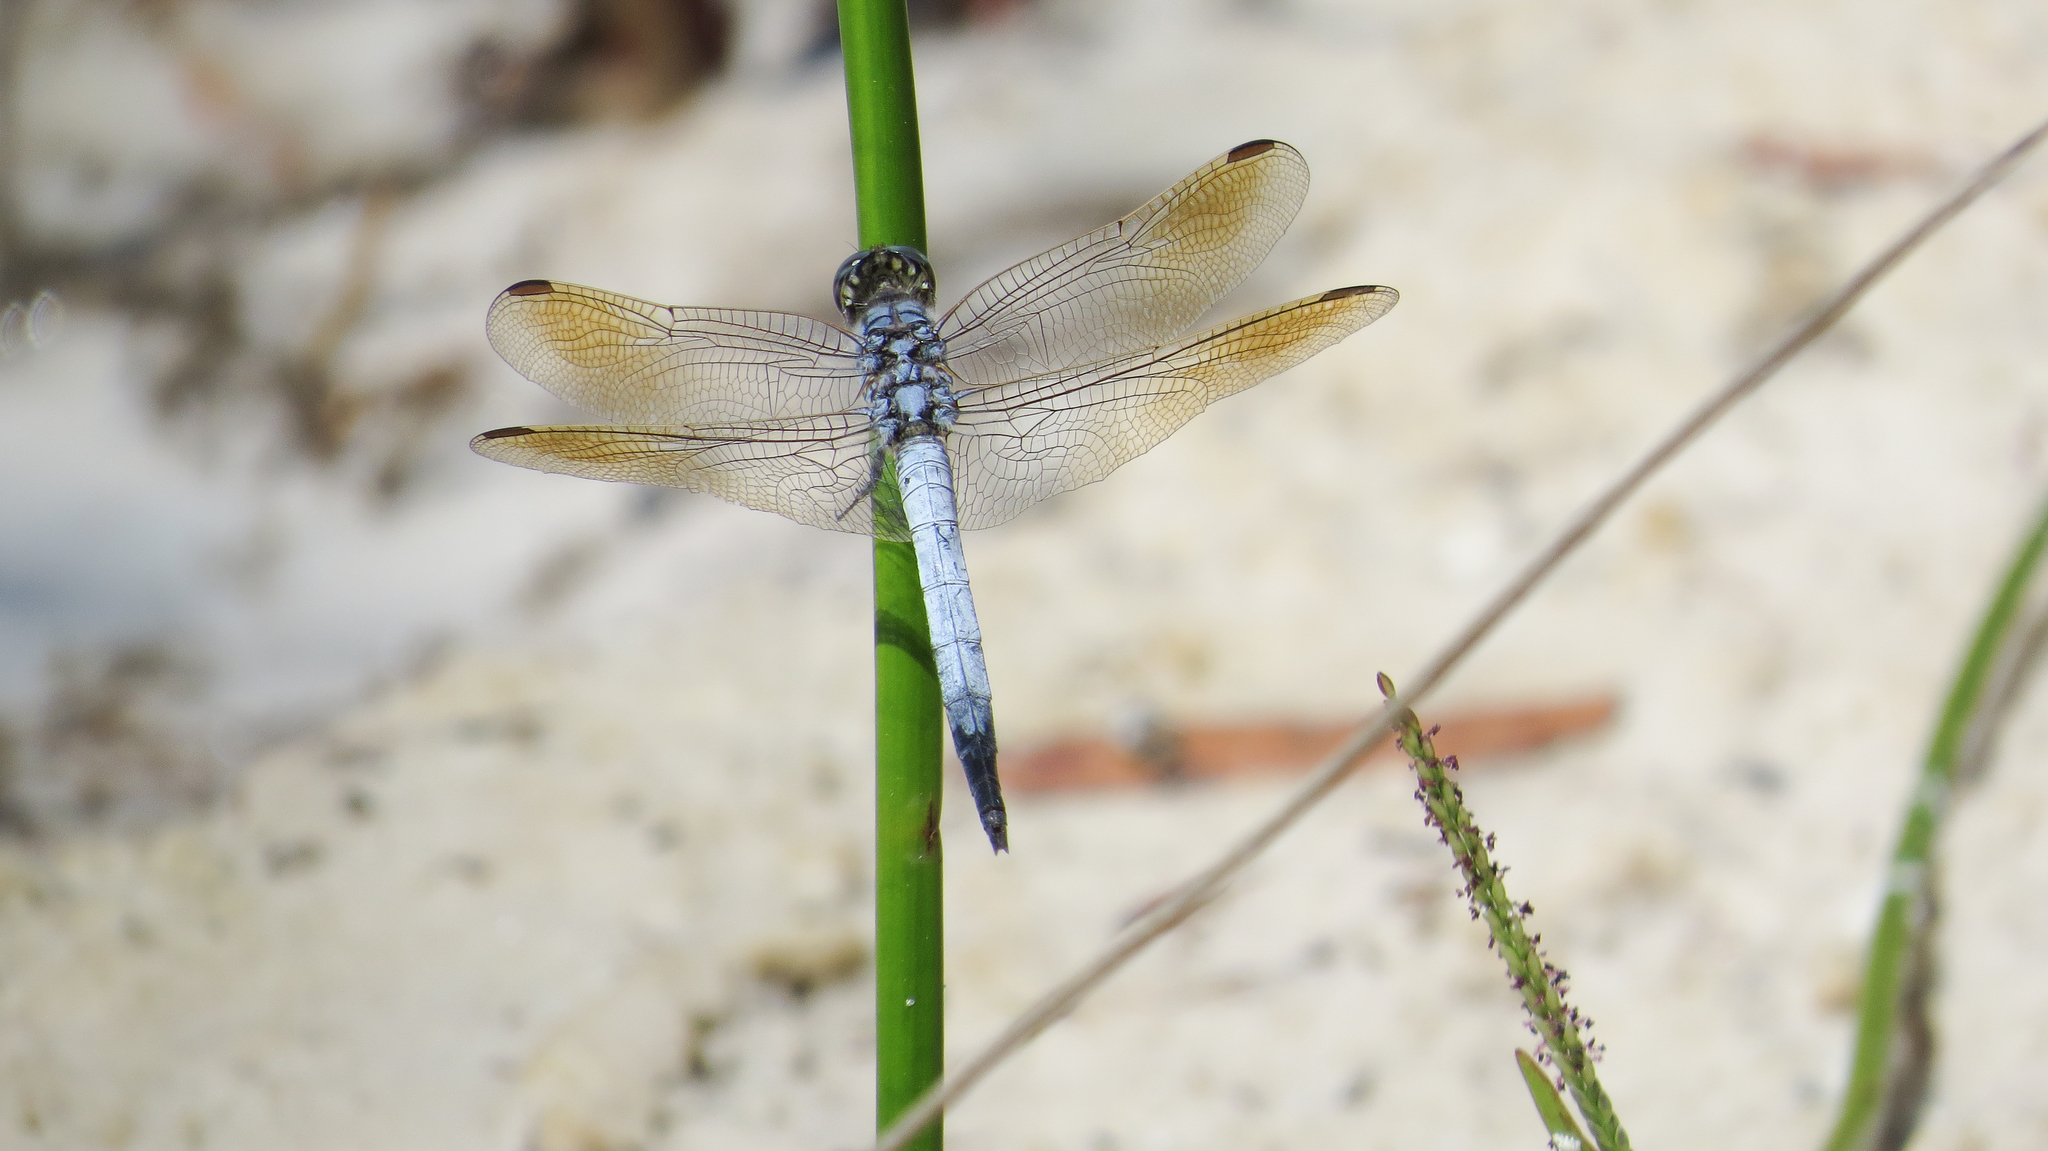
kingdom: Animalia
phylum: Arthropoda
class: Insecta
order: Odonata
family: Libellulidae
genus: Orthetrum
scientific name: Orthetrum caledonicum
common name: Blue skimmer
